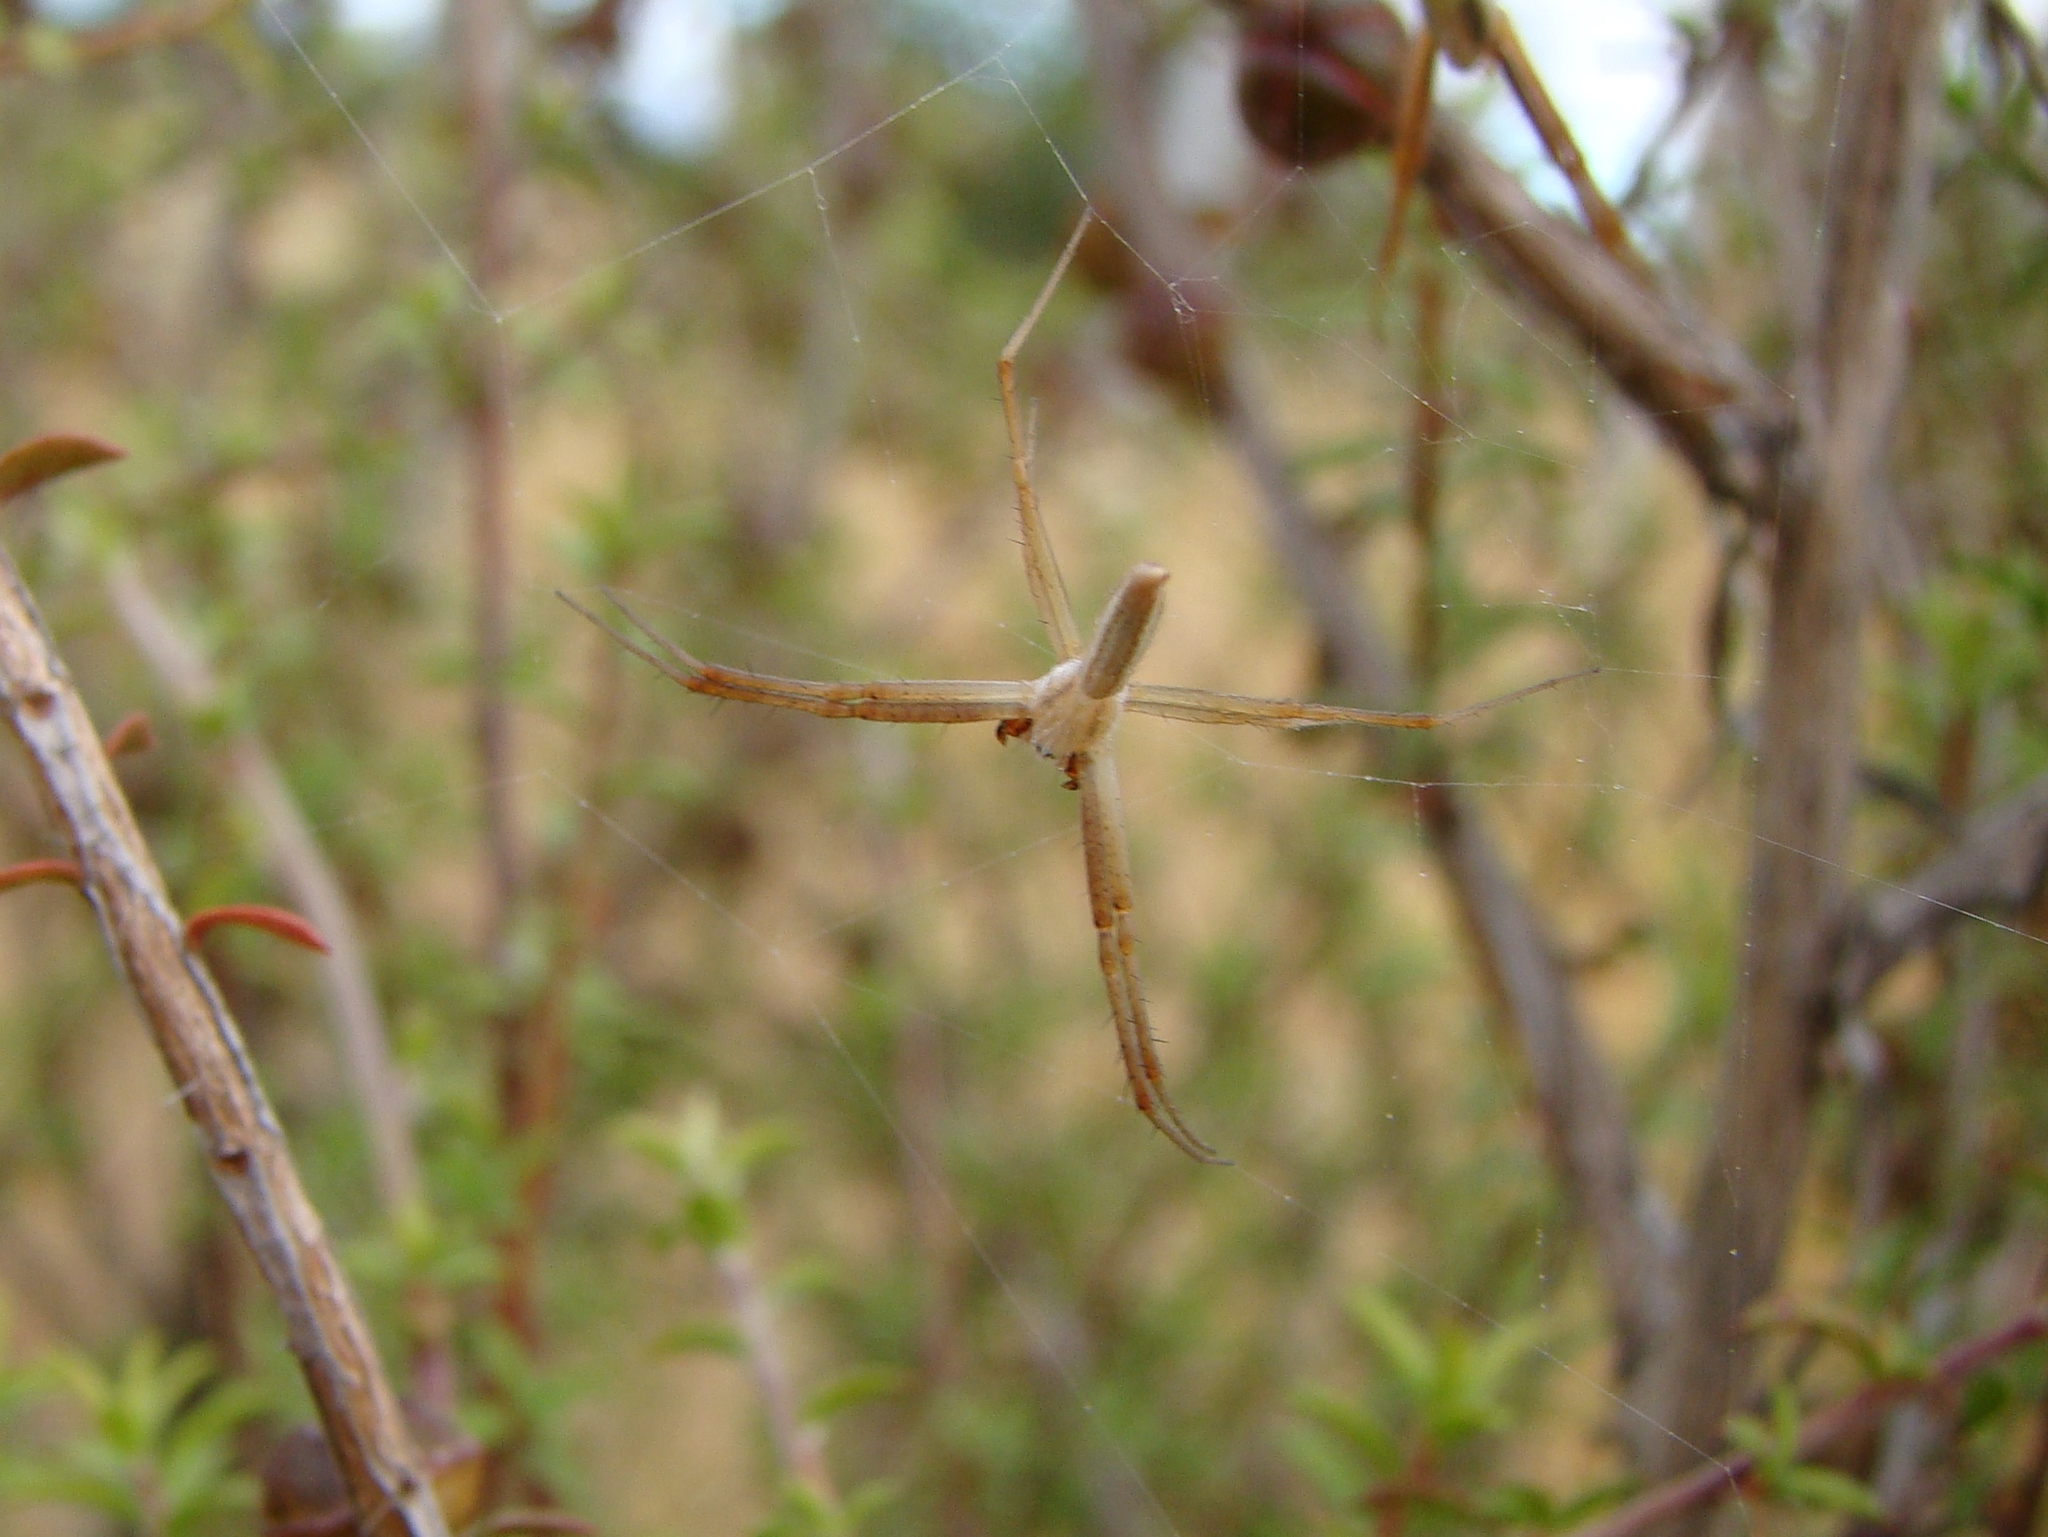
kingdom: Animalia
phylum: Arthropoda
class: Arachnida
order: Araneae
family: Araneidae
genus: Argiope
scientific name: Argiope protensa
